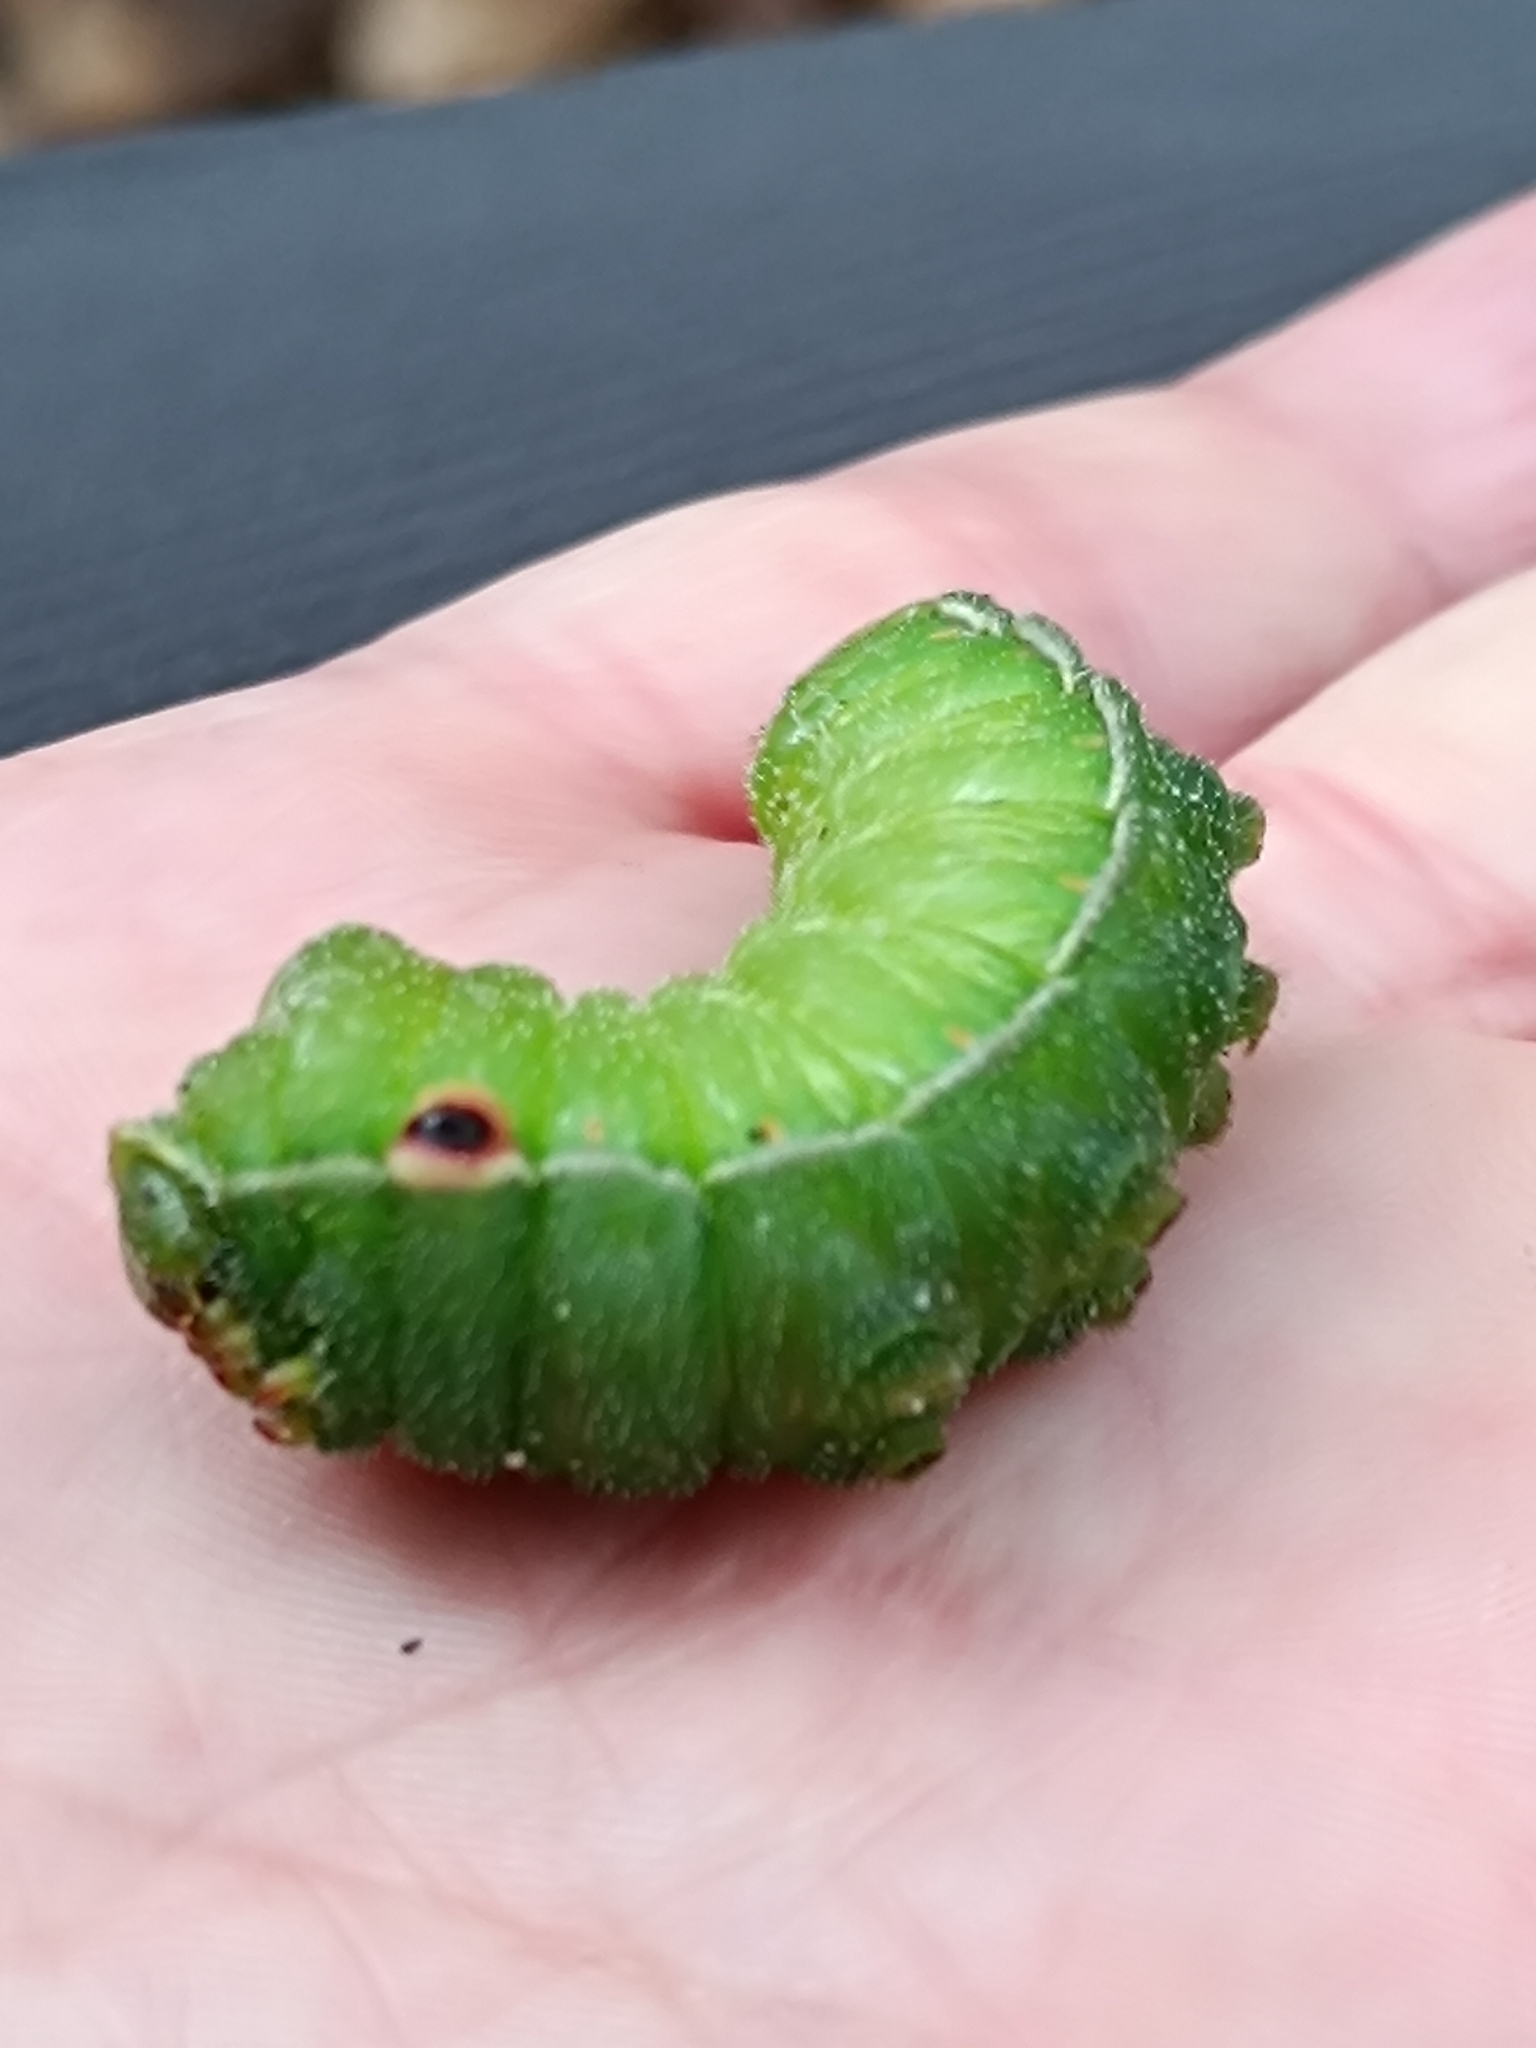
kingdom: Animalia
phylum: Arthropoda
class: Insecta
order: Lepidoptera
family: Saturniidae
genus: Aglia
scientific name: Aglia tau
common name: Tau emperor
